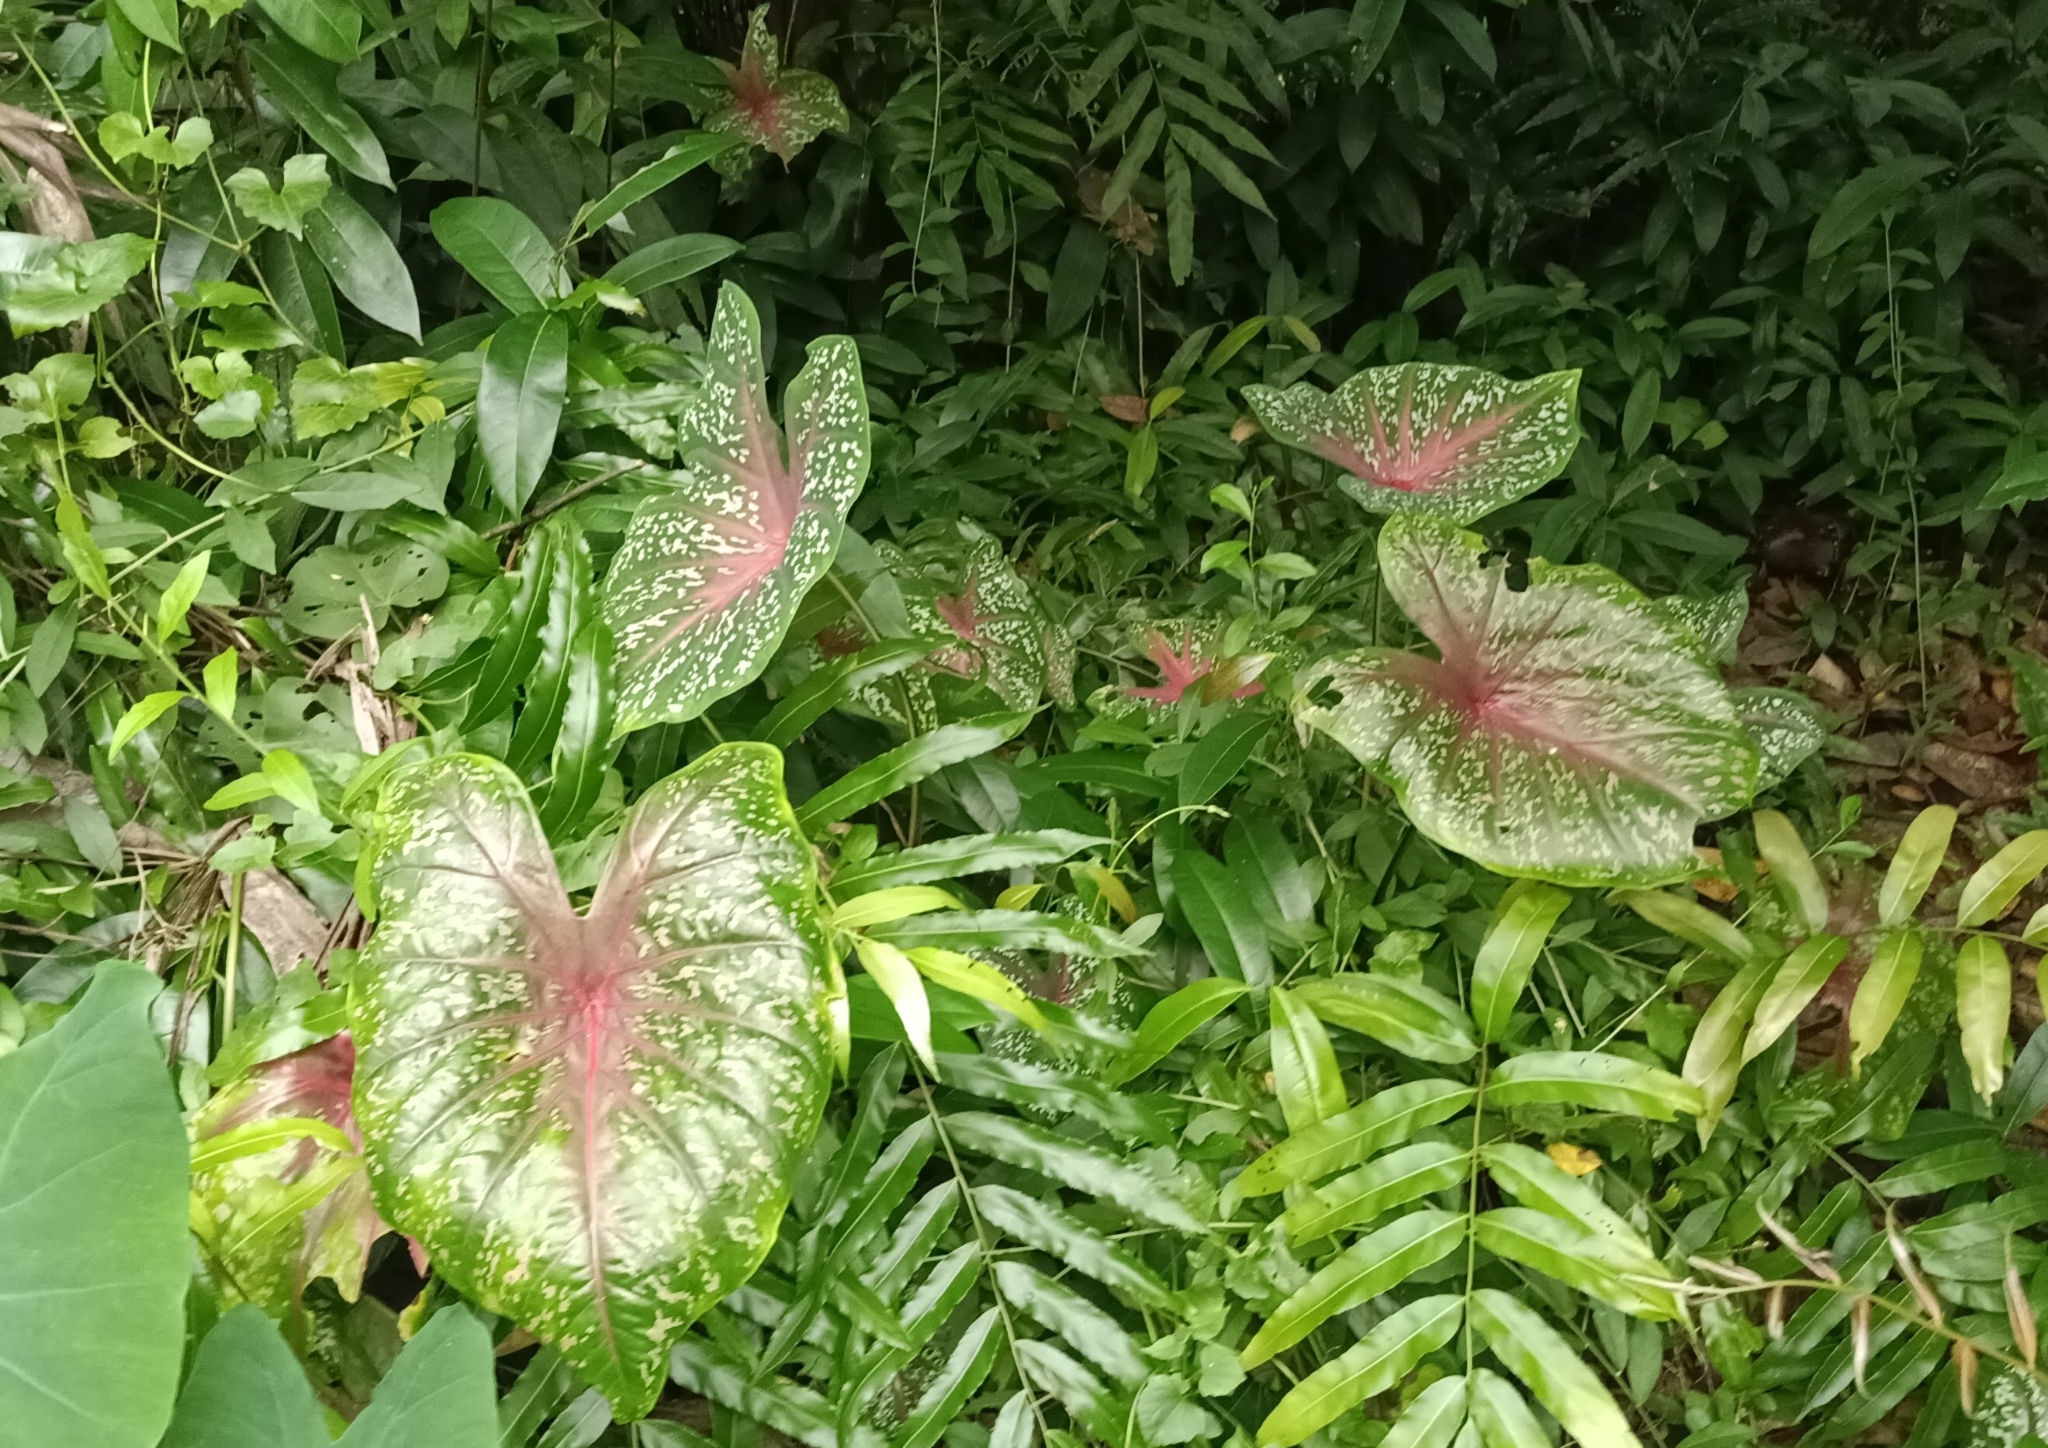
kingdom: Plantae
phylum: Tracheophyta
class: Liliopsida
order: Alismatales
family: Araceae
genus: Caladium
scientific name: Caladium bicolor
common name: Artist's pallet
